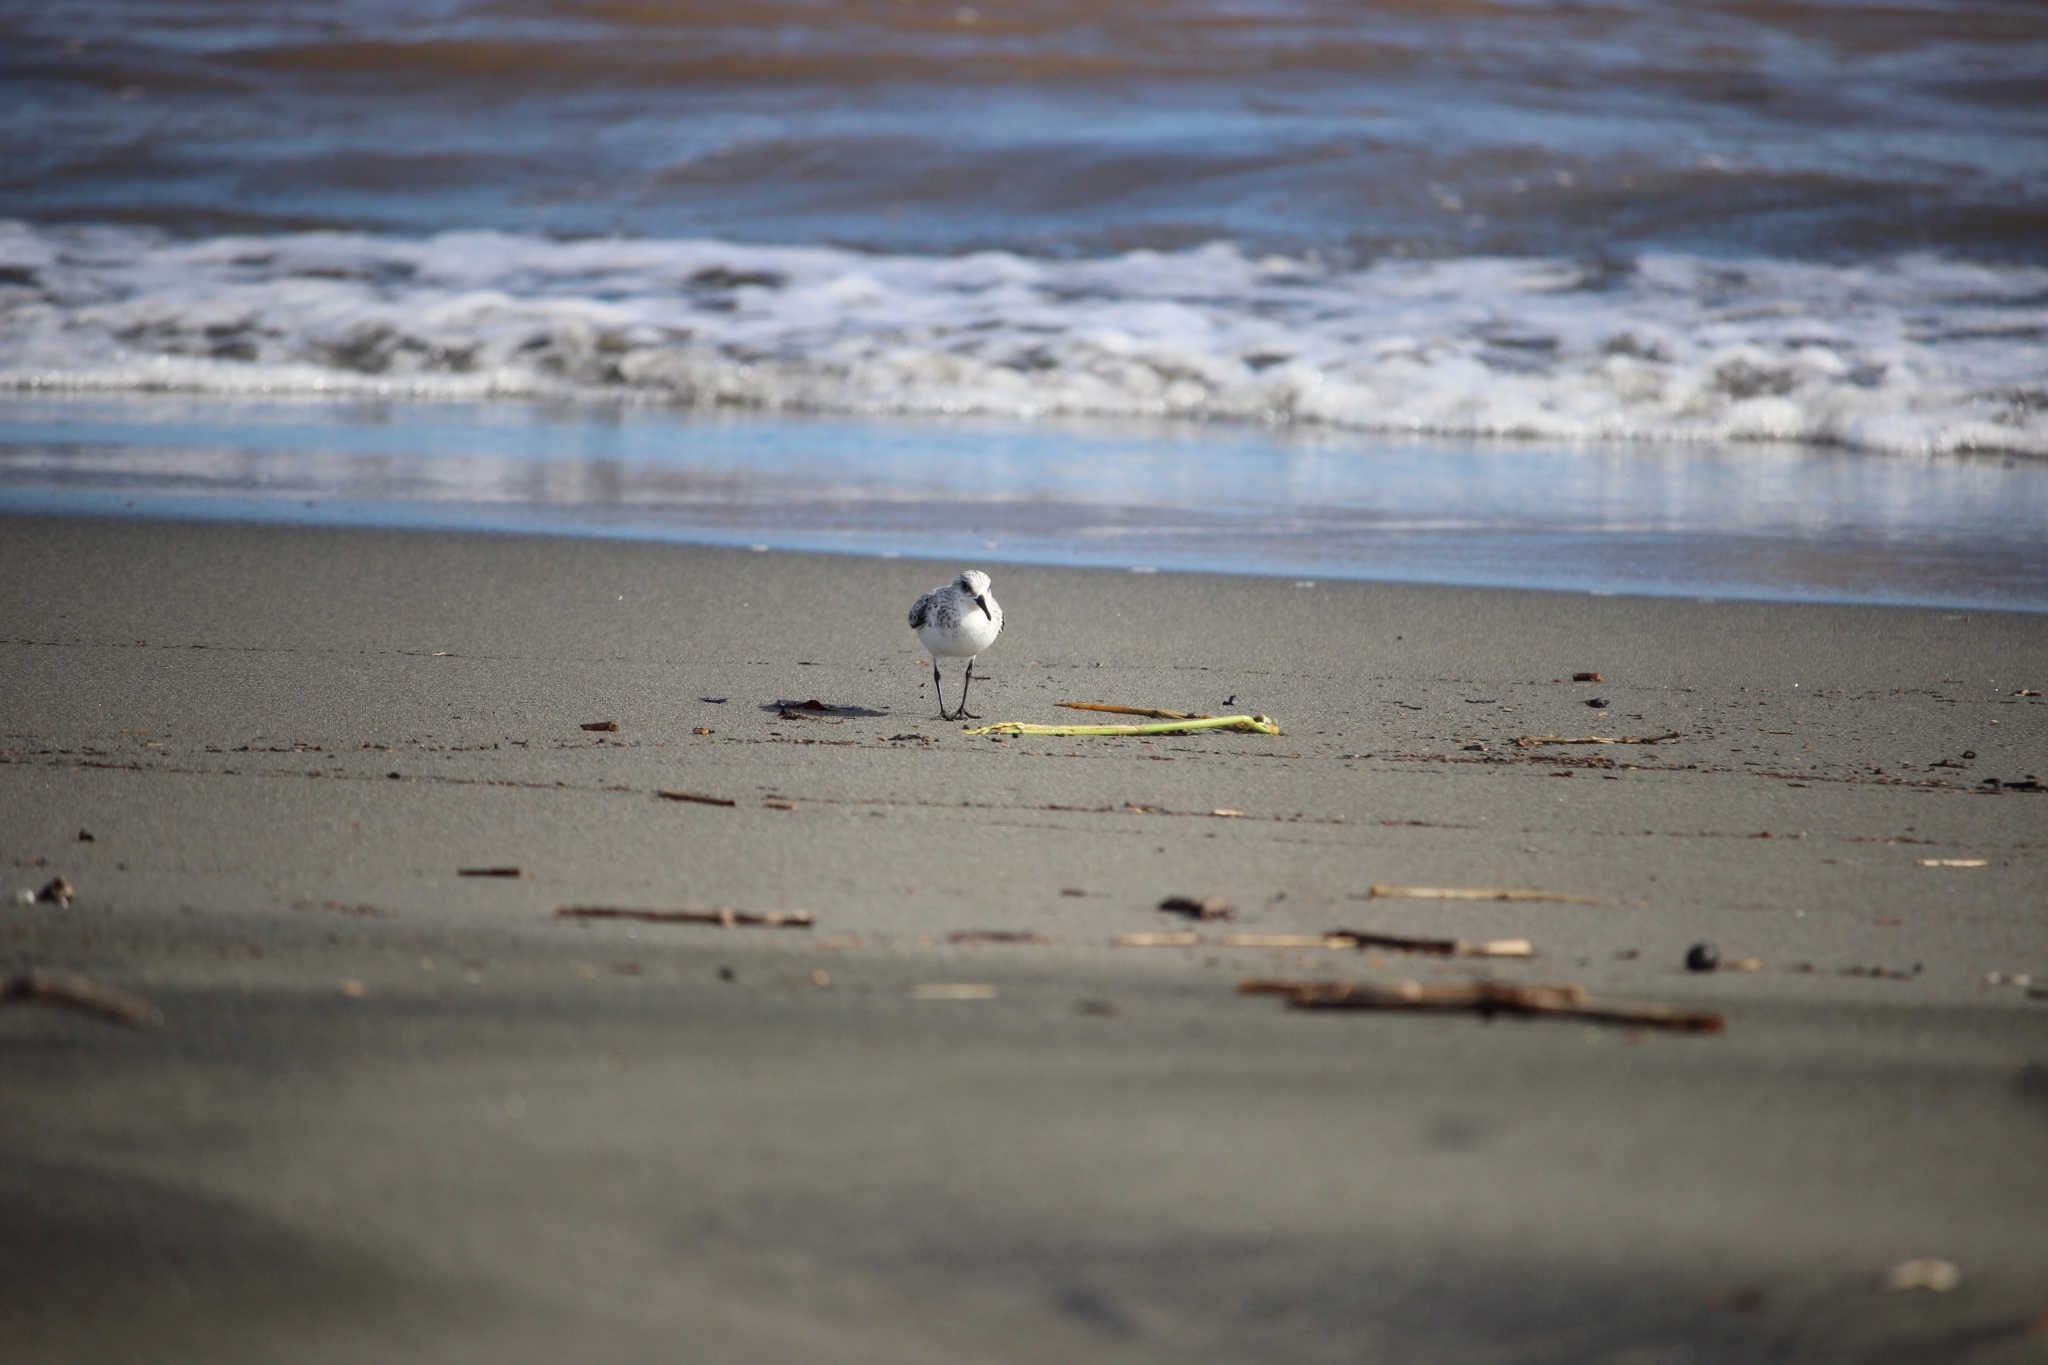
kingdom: Animalia
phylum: Chordata
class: Aves
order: Charadriiformes
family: Scolopacidae
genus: Calidris
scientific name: Calidris alba
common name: Sanderling
